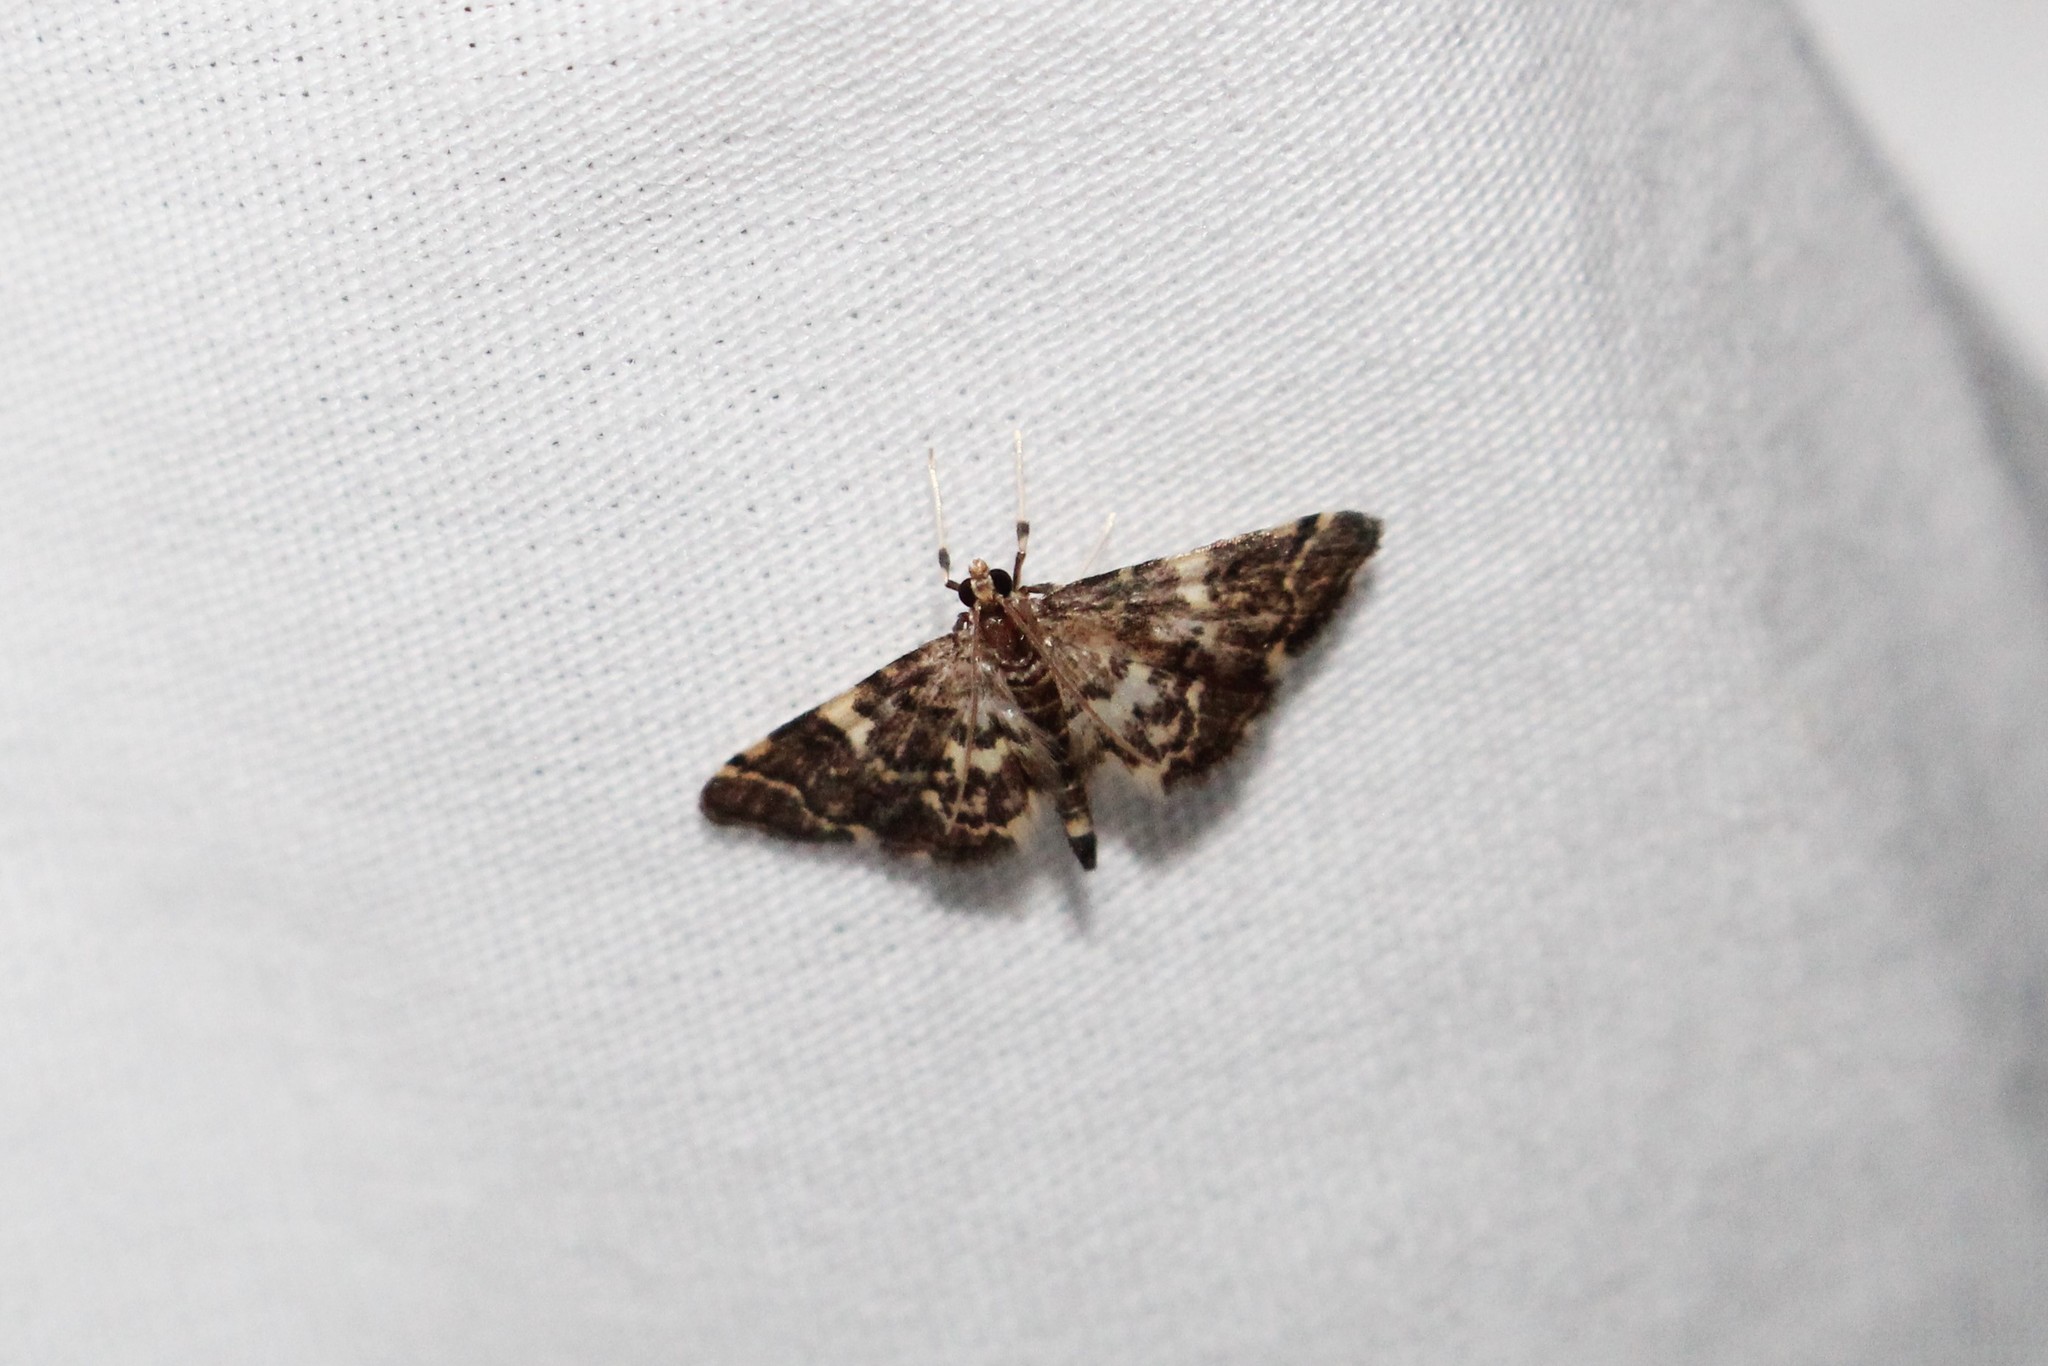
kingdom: Animalia
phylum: Arthropoda
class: Insecta
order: Lepidoptera
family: Crambidae
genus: Anageshna
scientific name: Anageshna primordialis
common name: Yellow-spotted webworm moth
